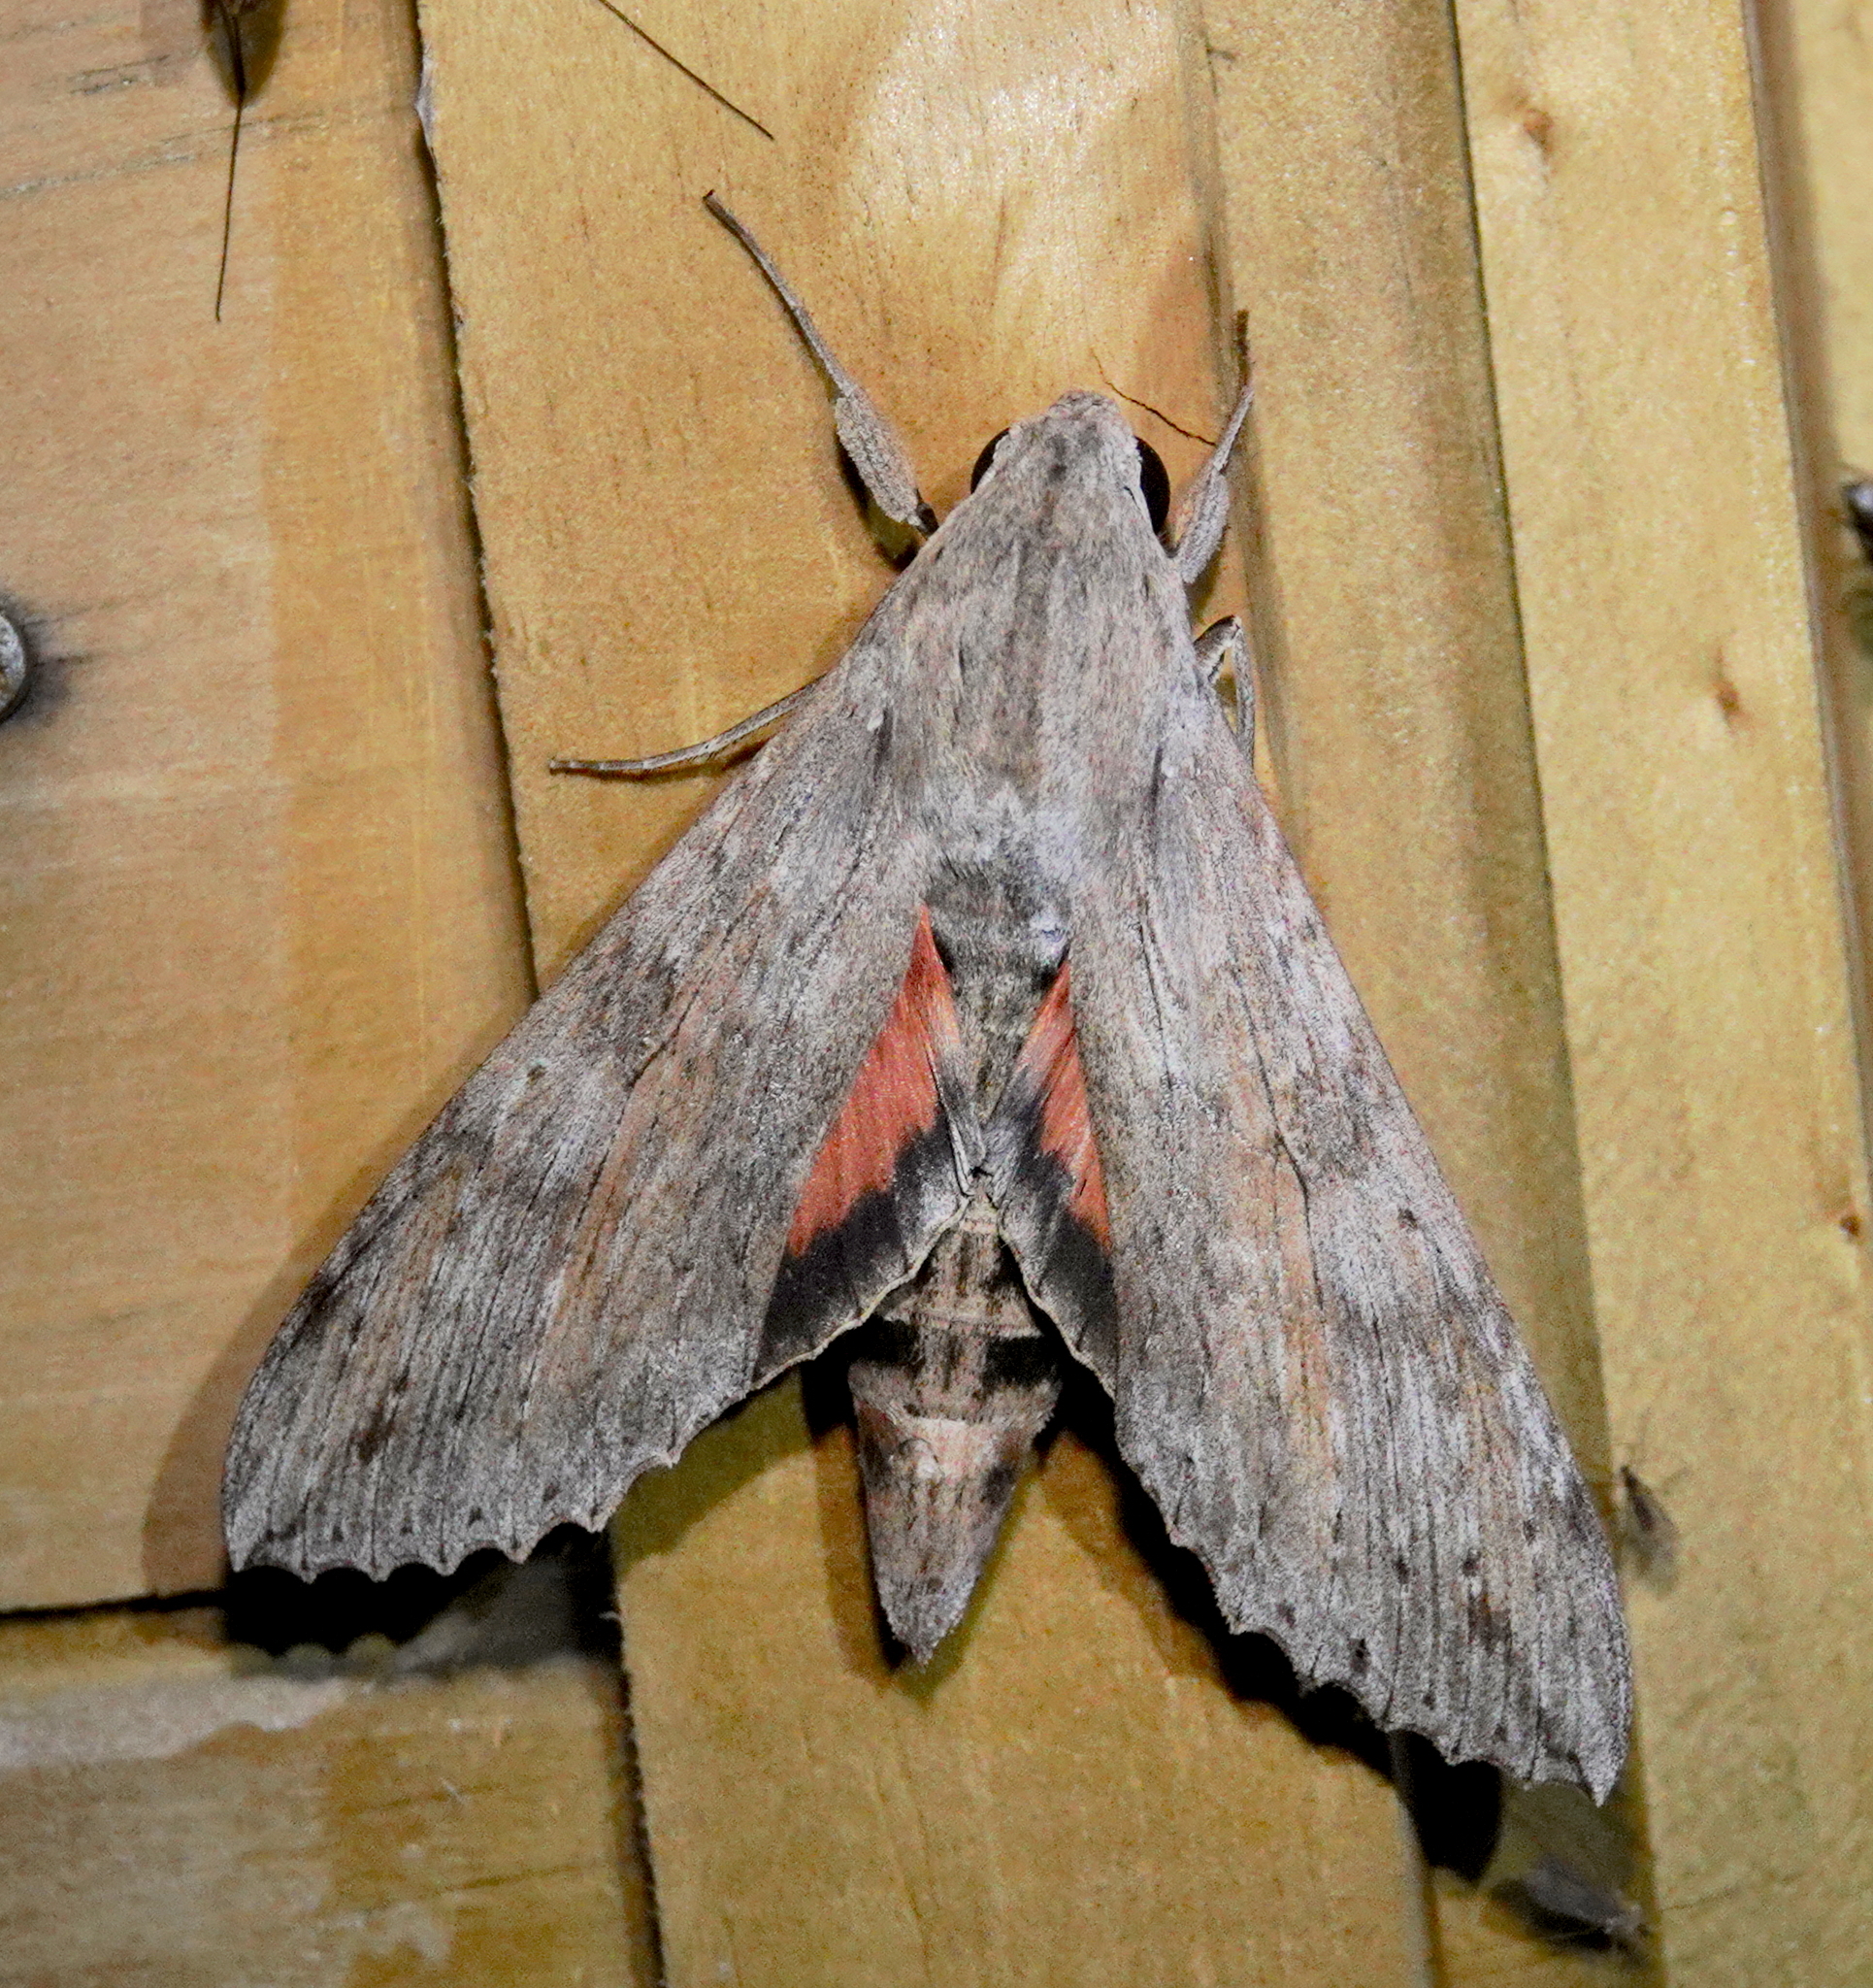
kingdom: Animalia
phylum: Arthropoda
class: Insecta
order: Lepidoptera
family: Sphingidae
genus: Erinnyis
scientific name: Erinnyis ello
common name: Ello sphinx
